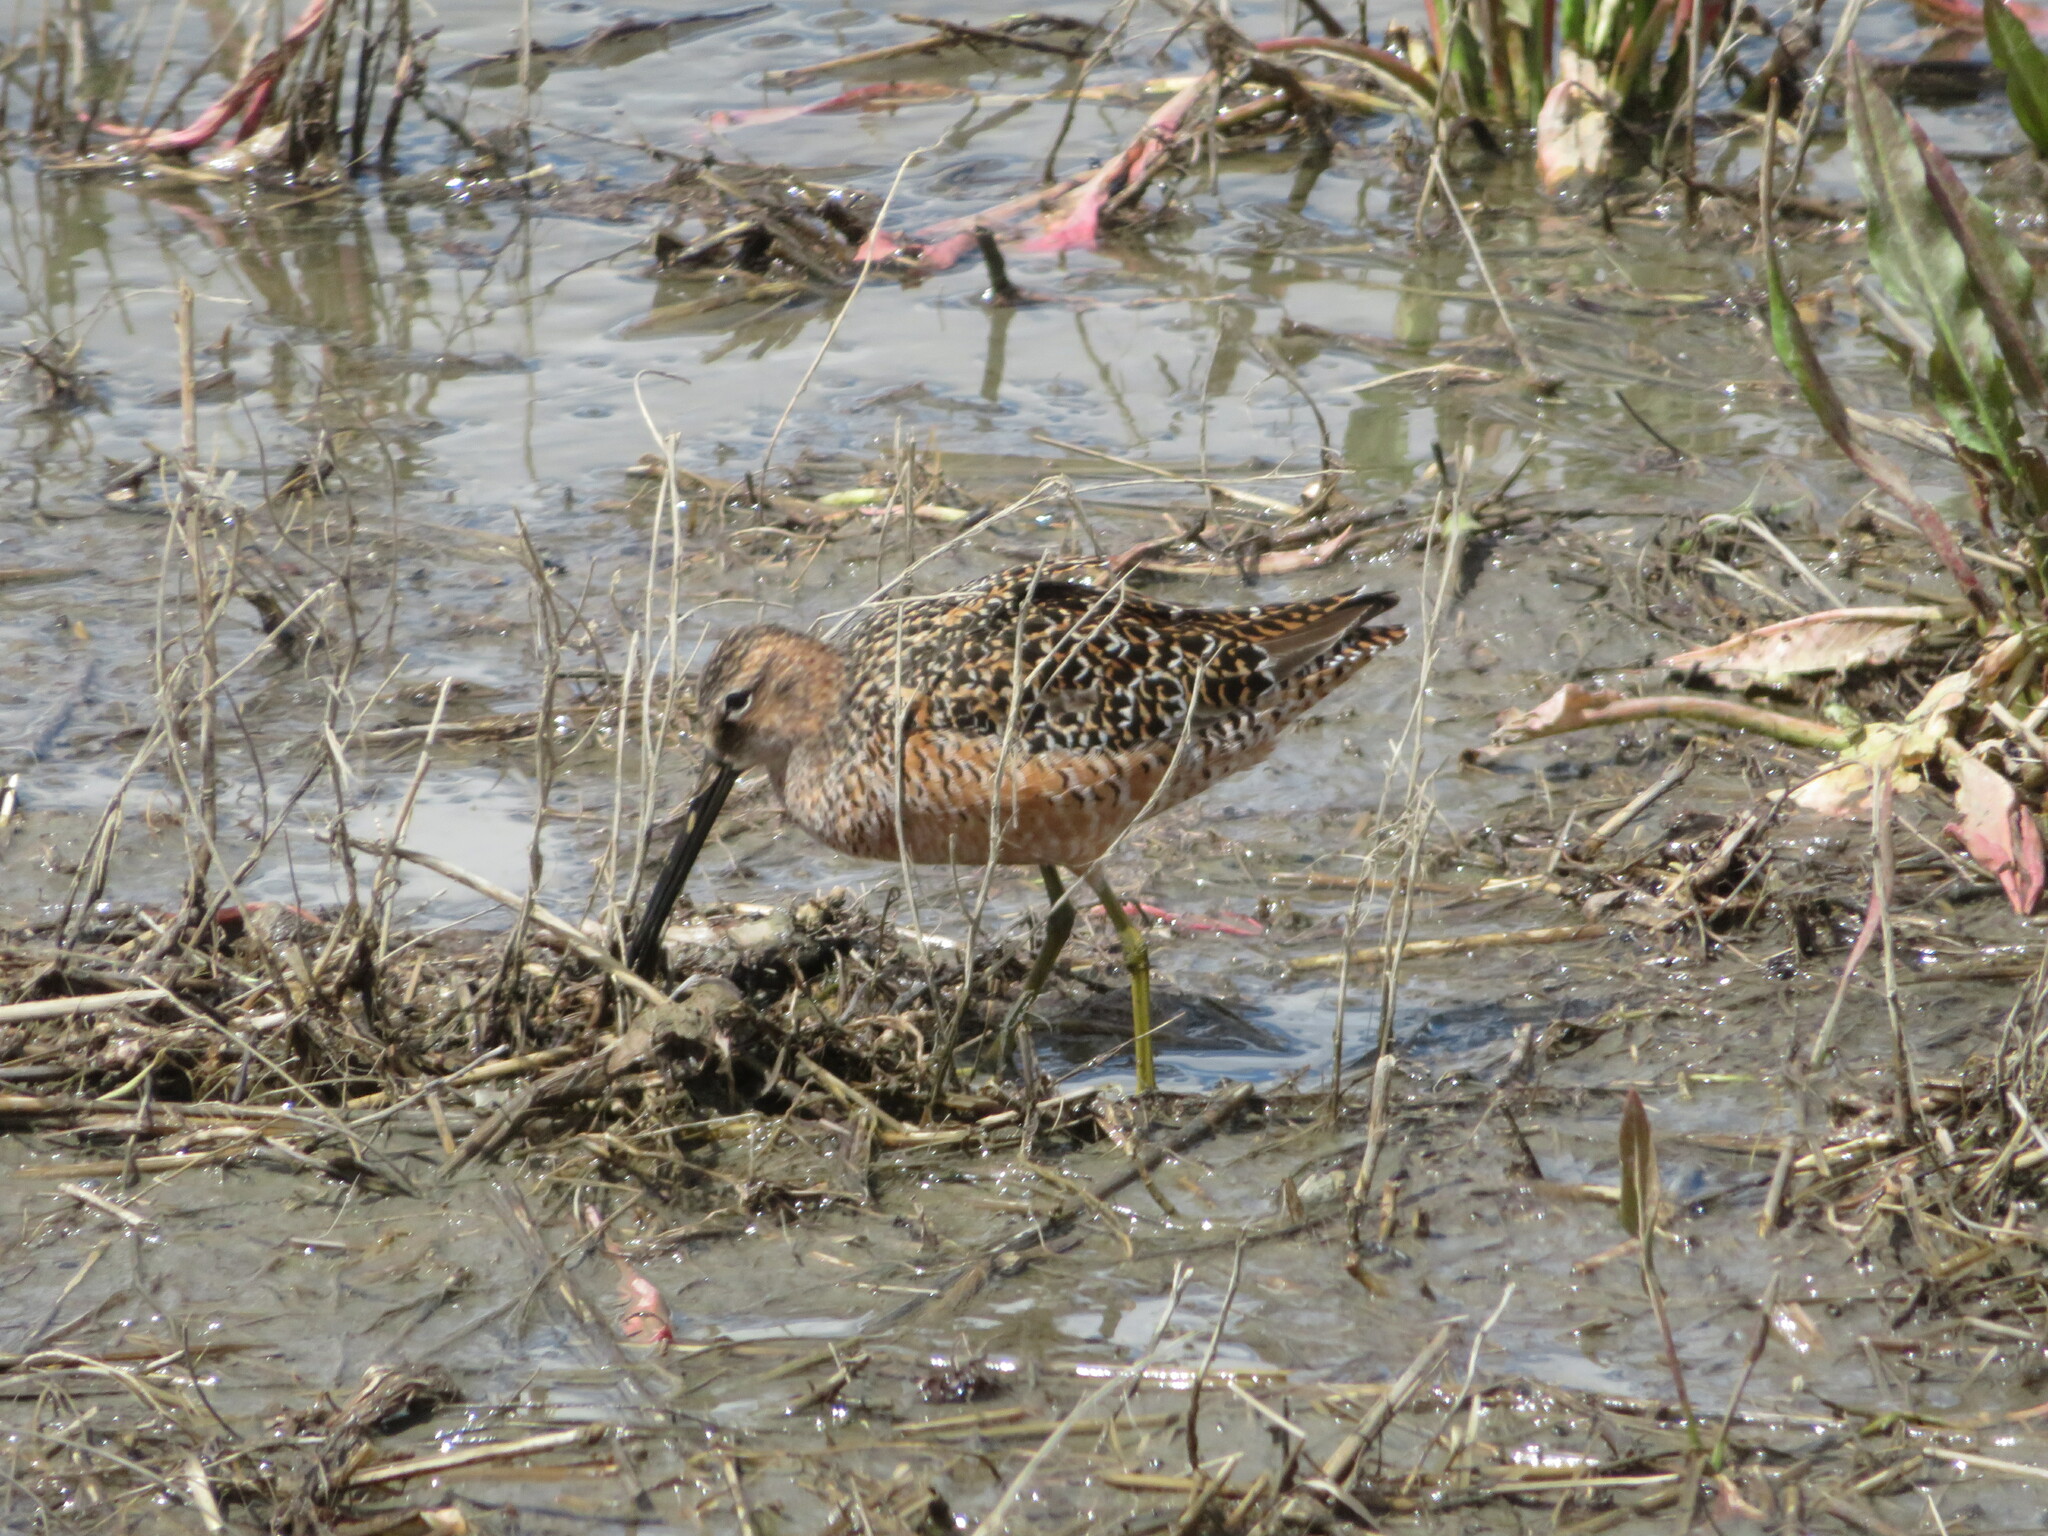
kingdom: Animalia
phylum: Chordata
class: Aves
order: Charadriiformes
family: Scolopacidae
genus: Limnodromus
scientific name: Limnodromus scolopaceus
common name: Long-billed dowitcher
